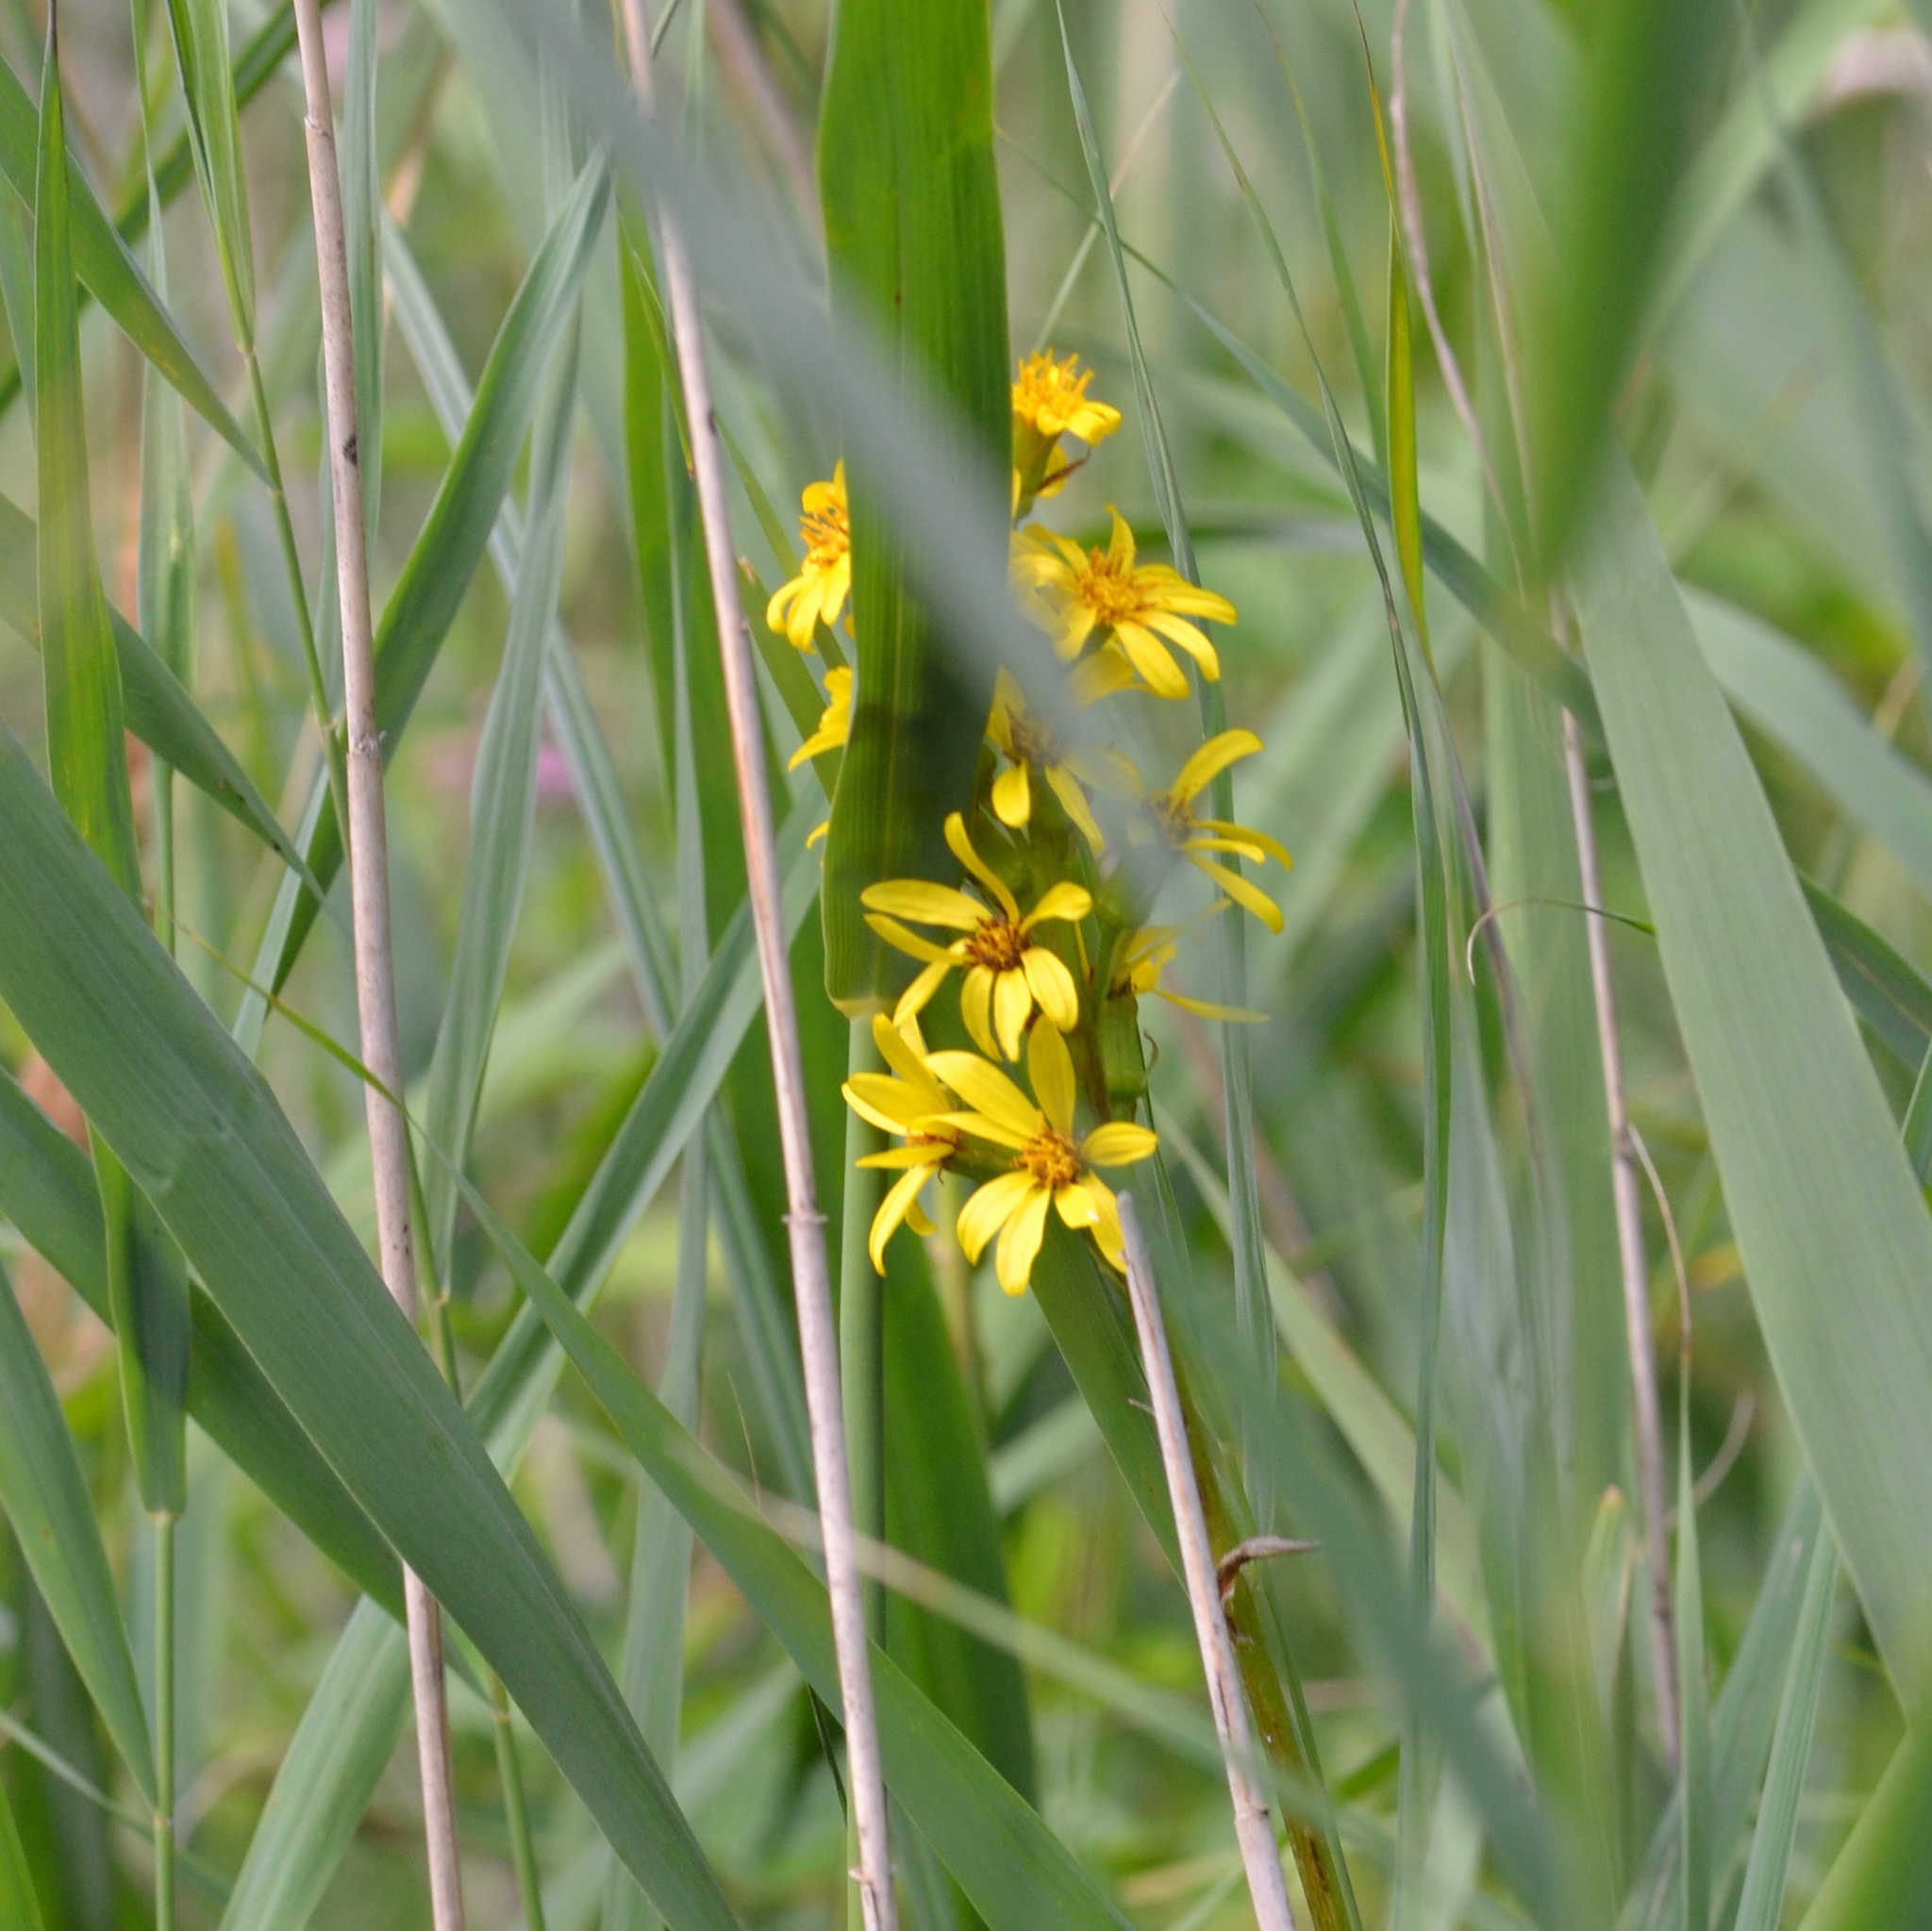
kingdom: Plantae
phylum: Tracheophyta
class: Magnoliopsida
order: Asterales
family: Asteraceae
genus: Ligularia
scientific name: Ligularia sibirica
